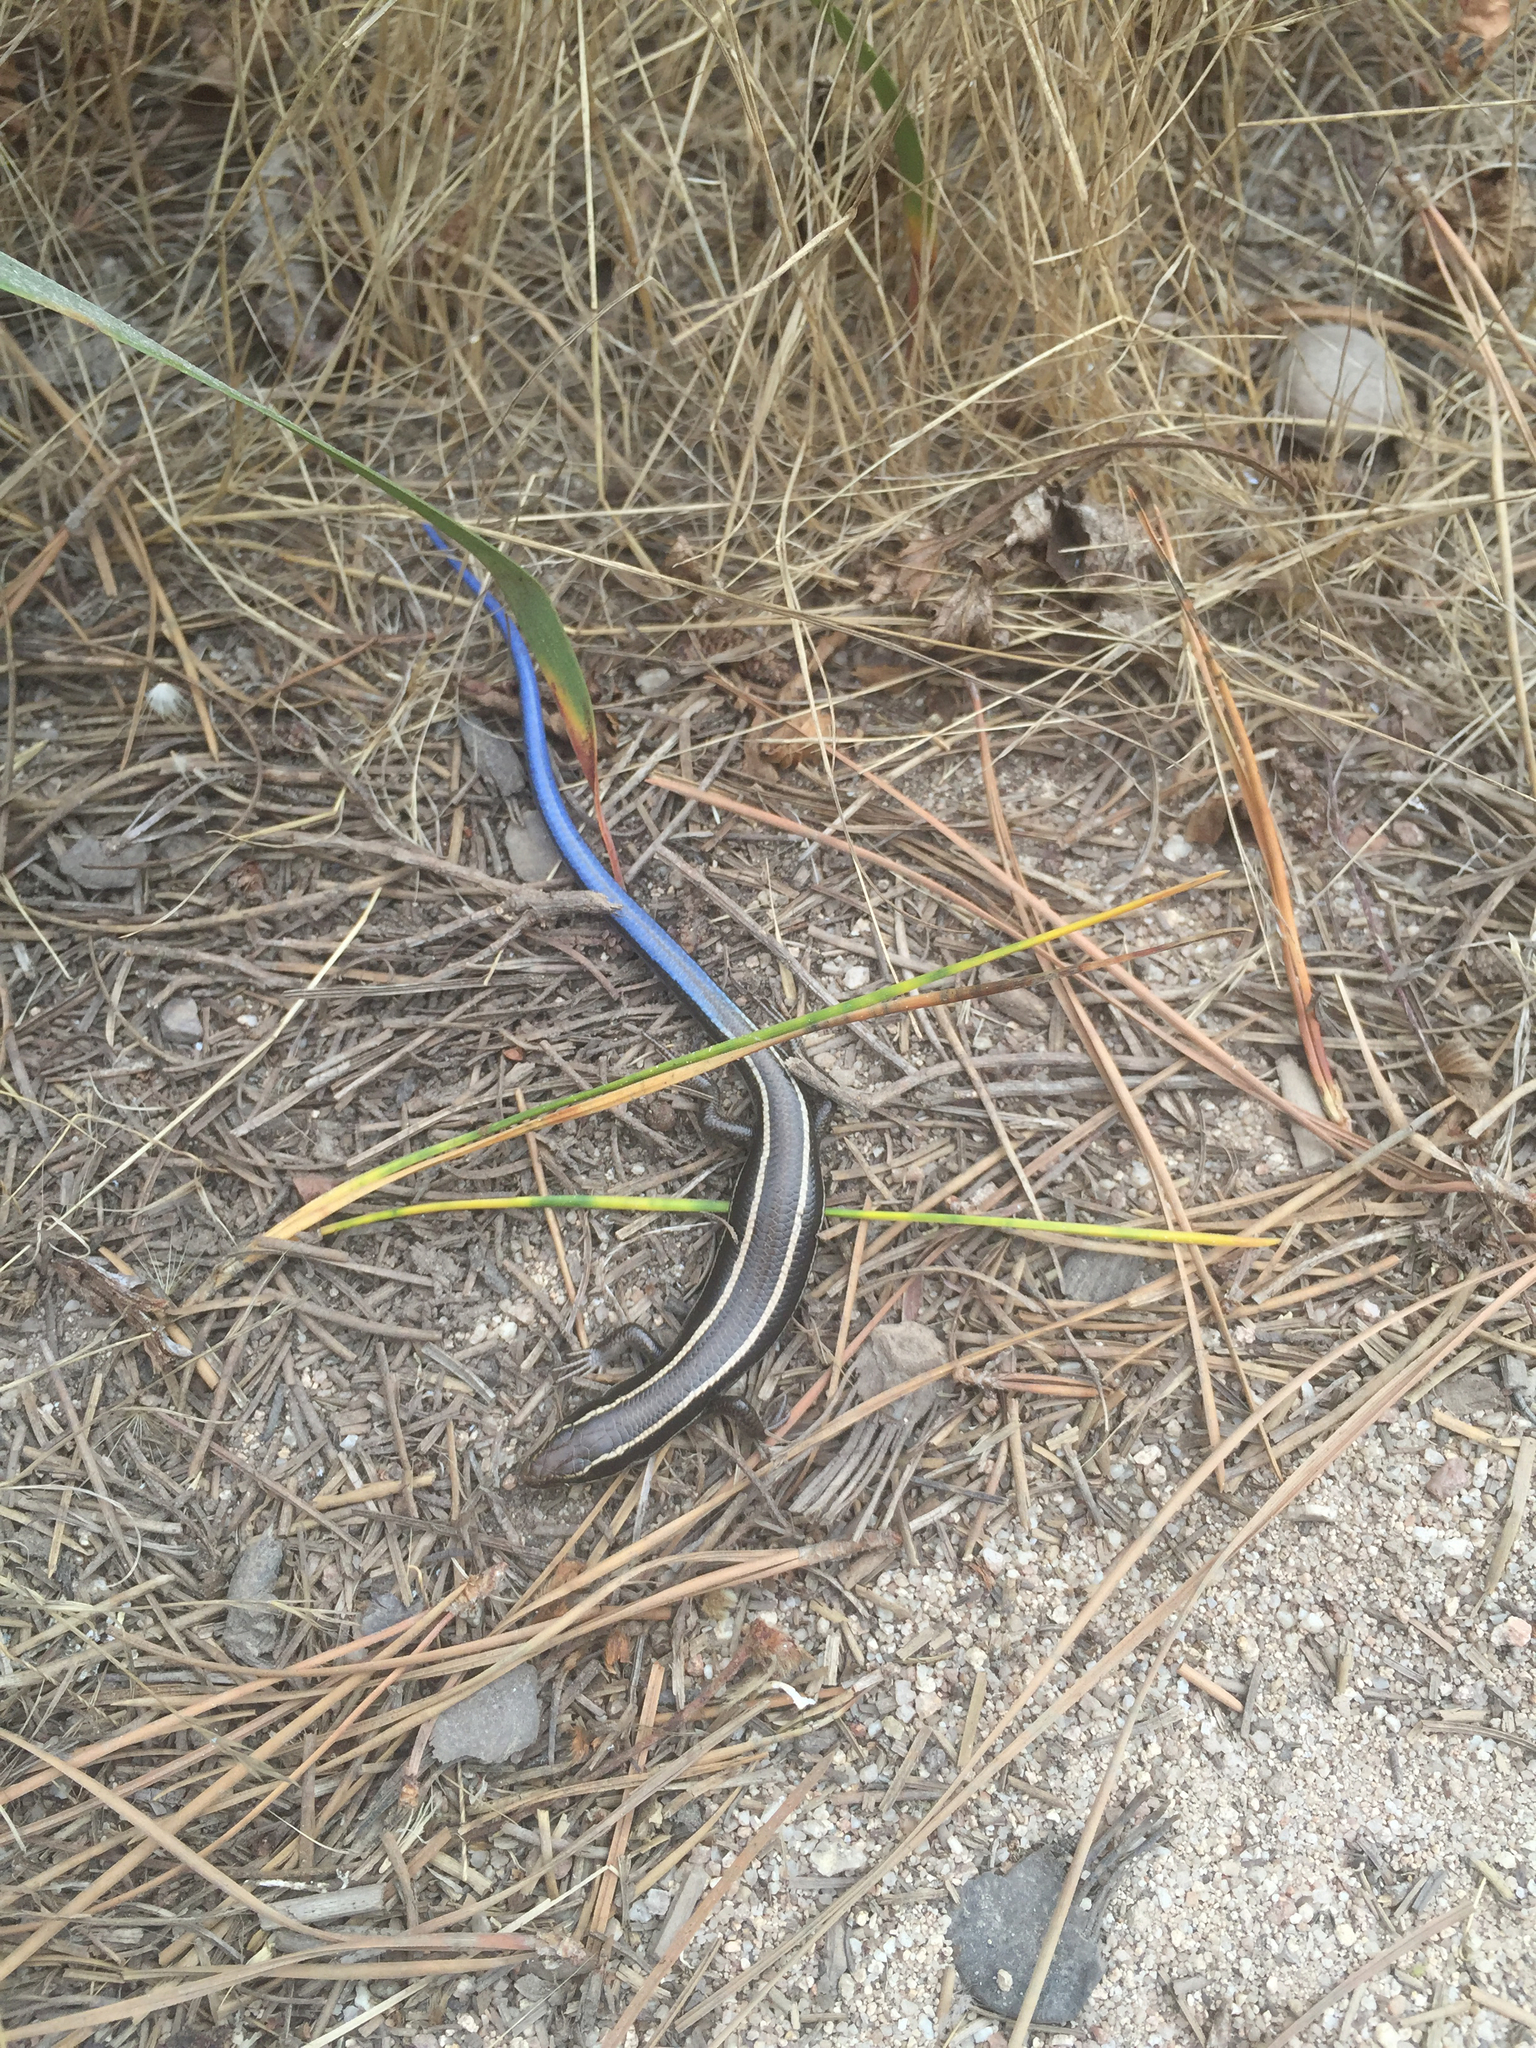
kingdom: Animalia
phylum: Chordata
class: Squamata
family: Scincidae
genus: Plestiodon
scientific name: Plestiodon skiltonianus
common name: Coronado island skink [interparietalis]
